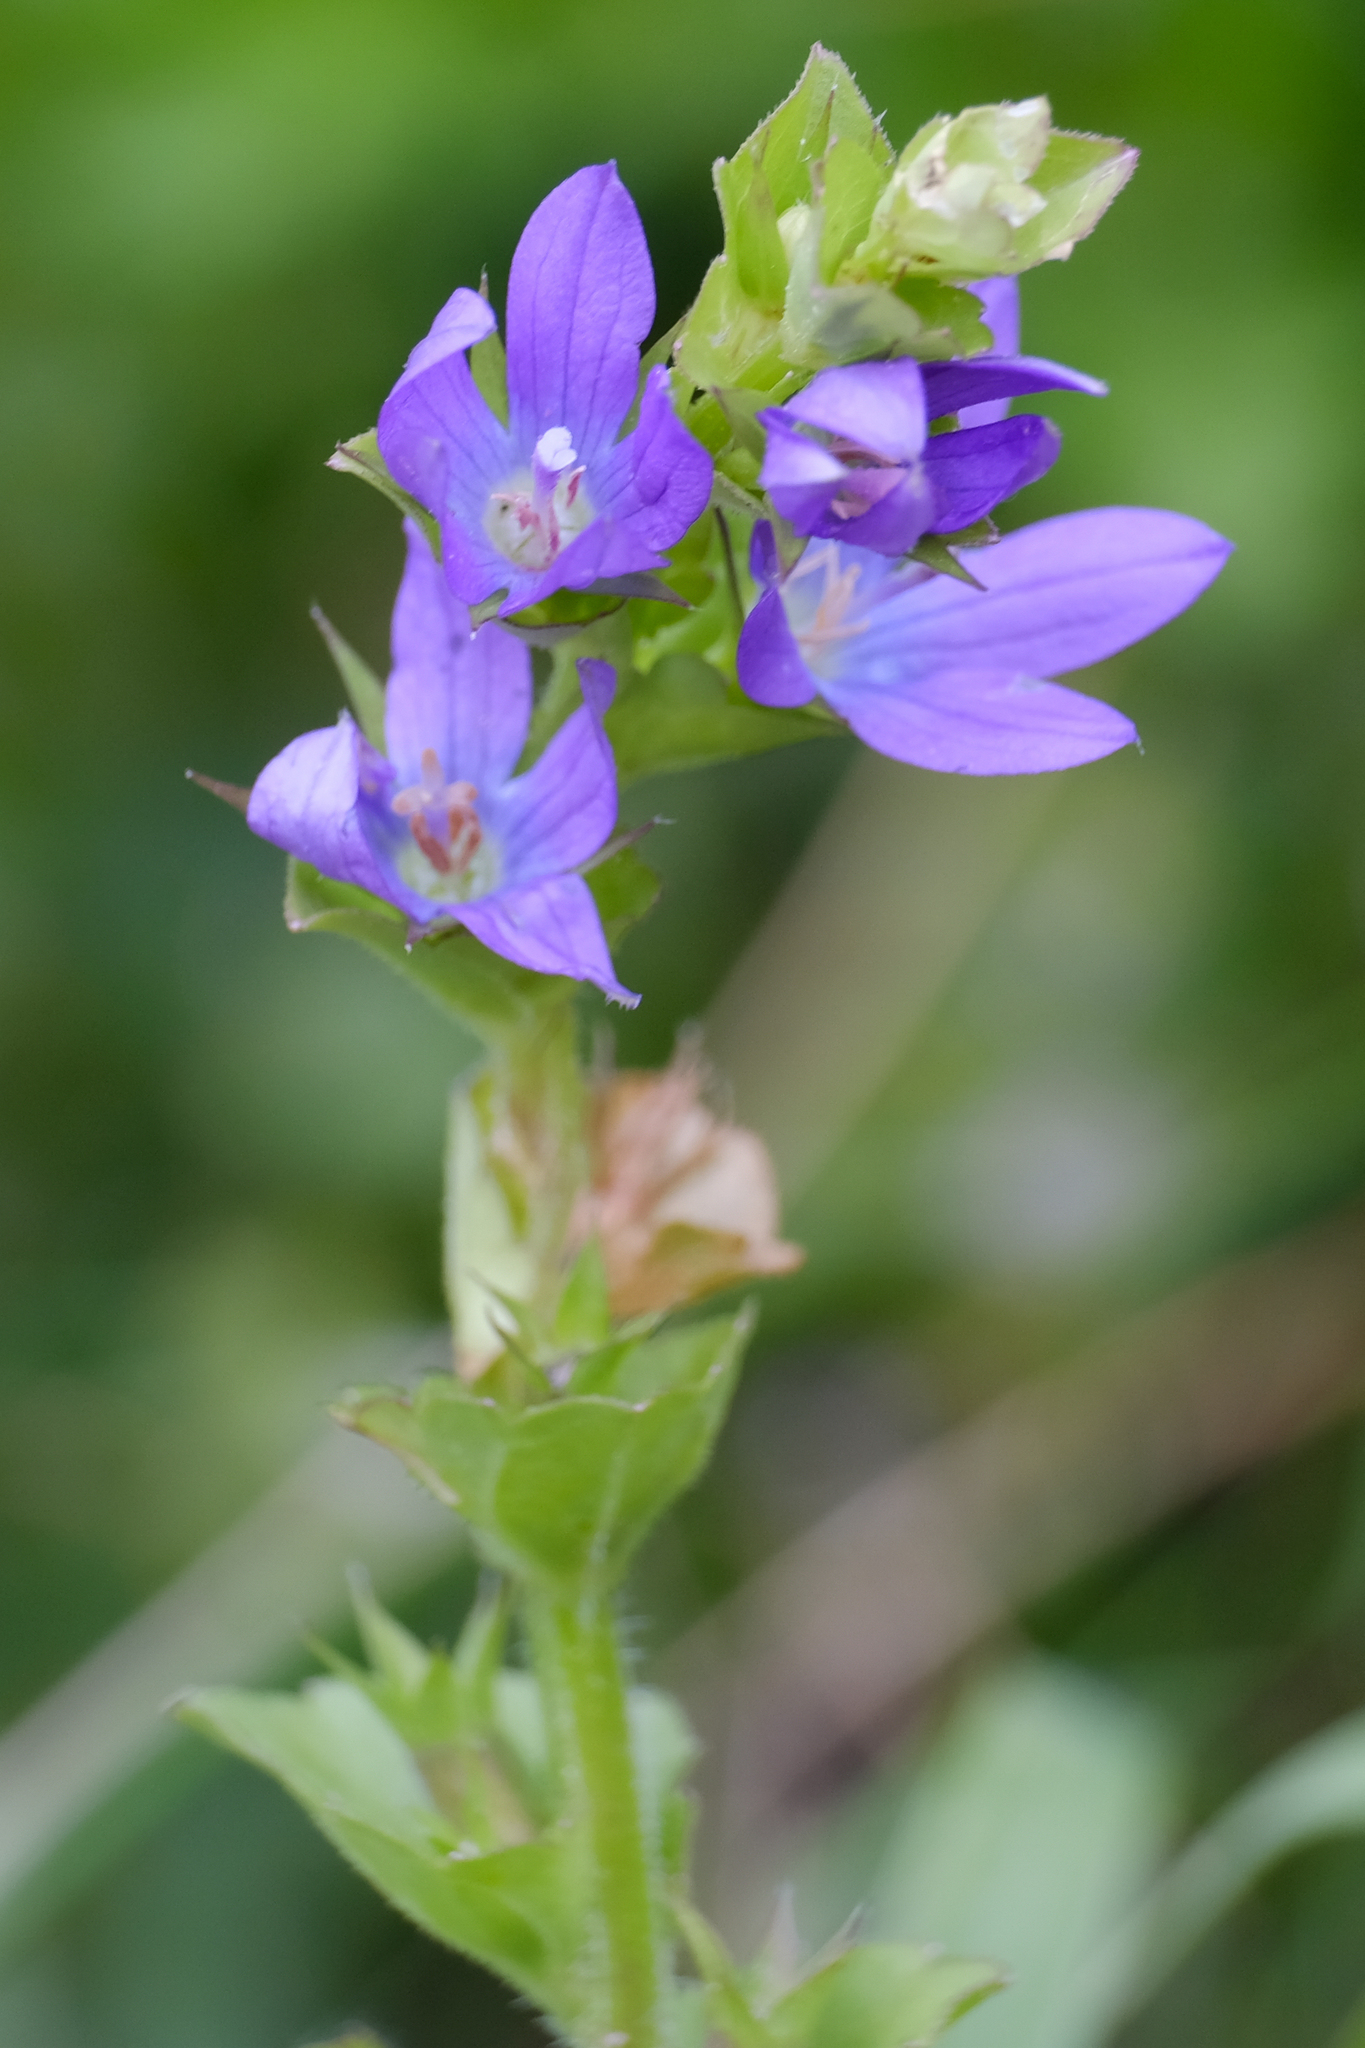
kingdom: Plantae
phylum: Tracheophyta
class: Magnoliopsida
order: Asterales
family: Campanulaceae
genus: Triodanis
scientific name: Triodanis perfoliata
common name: Clasping venus' looking-glass
